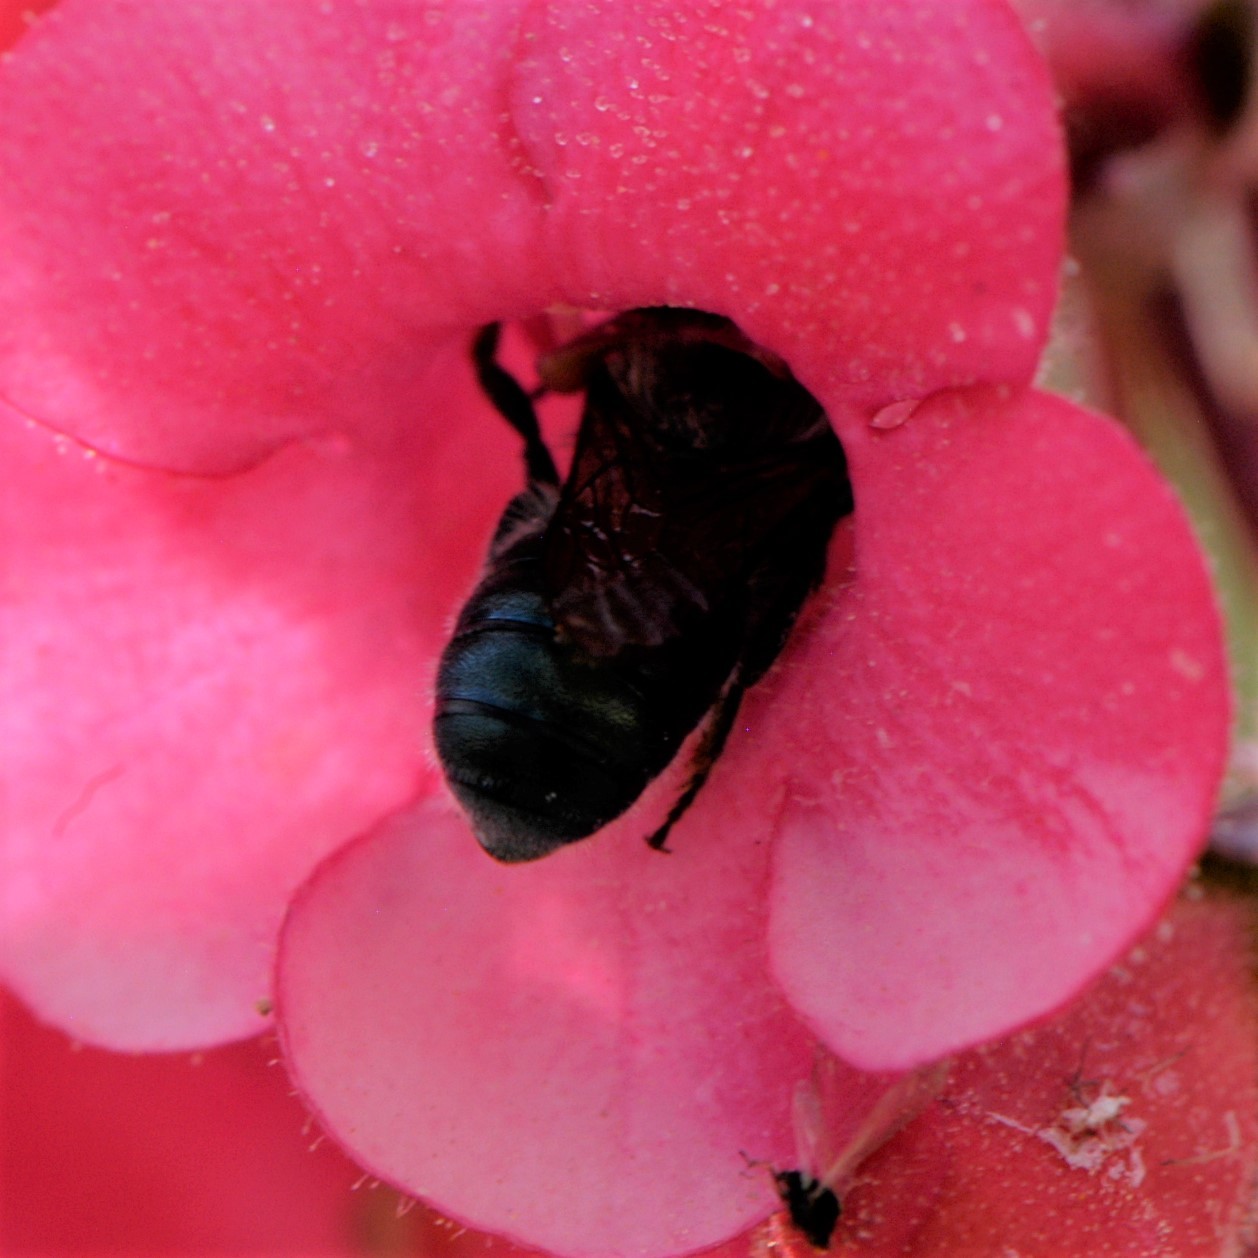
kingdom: Animalia
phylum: Arthropoda
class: Insecta
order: Hymenoptera
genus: Melanosmia
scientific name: Melanosmia
